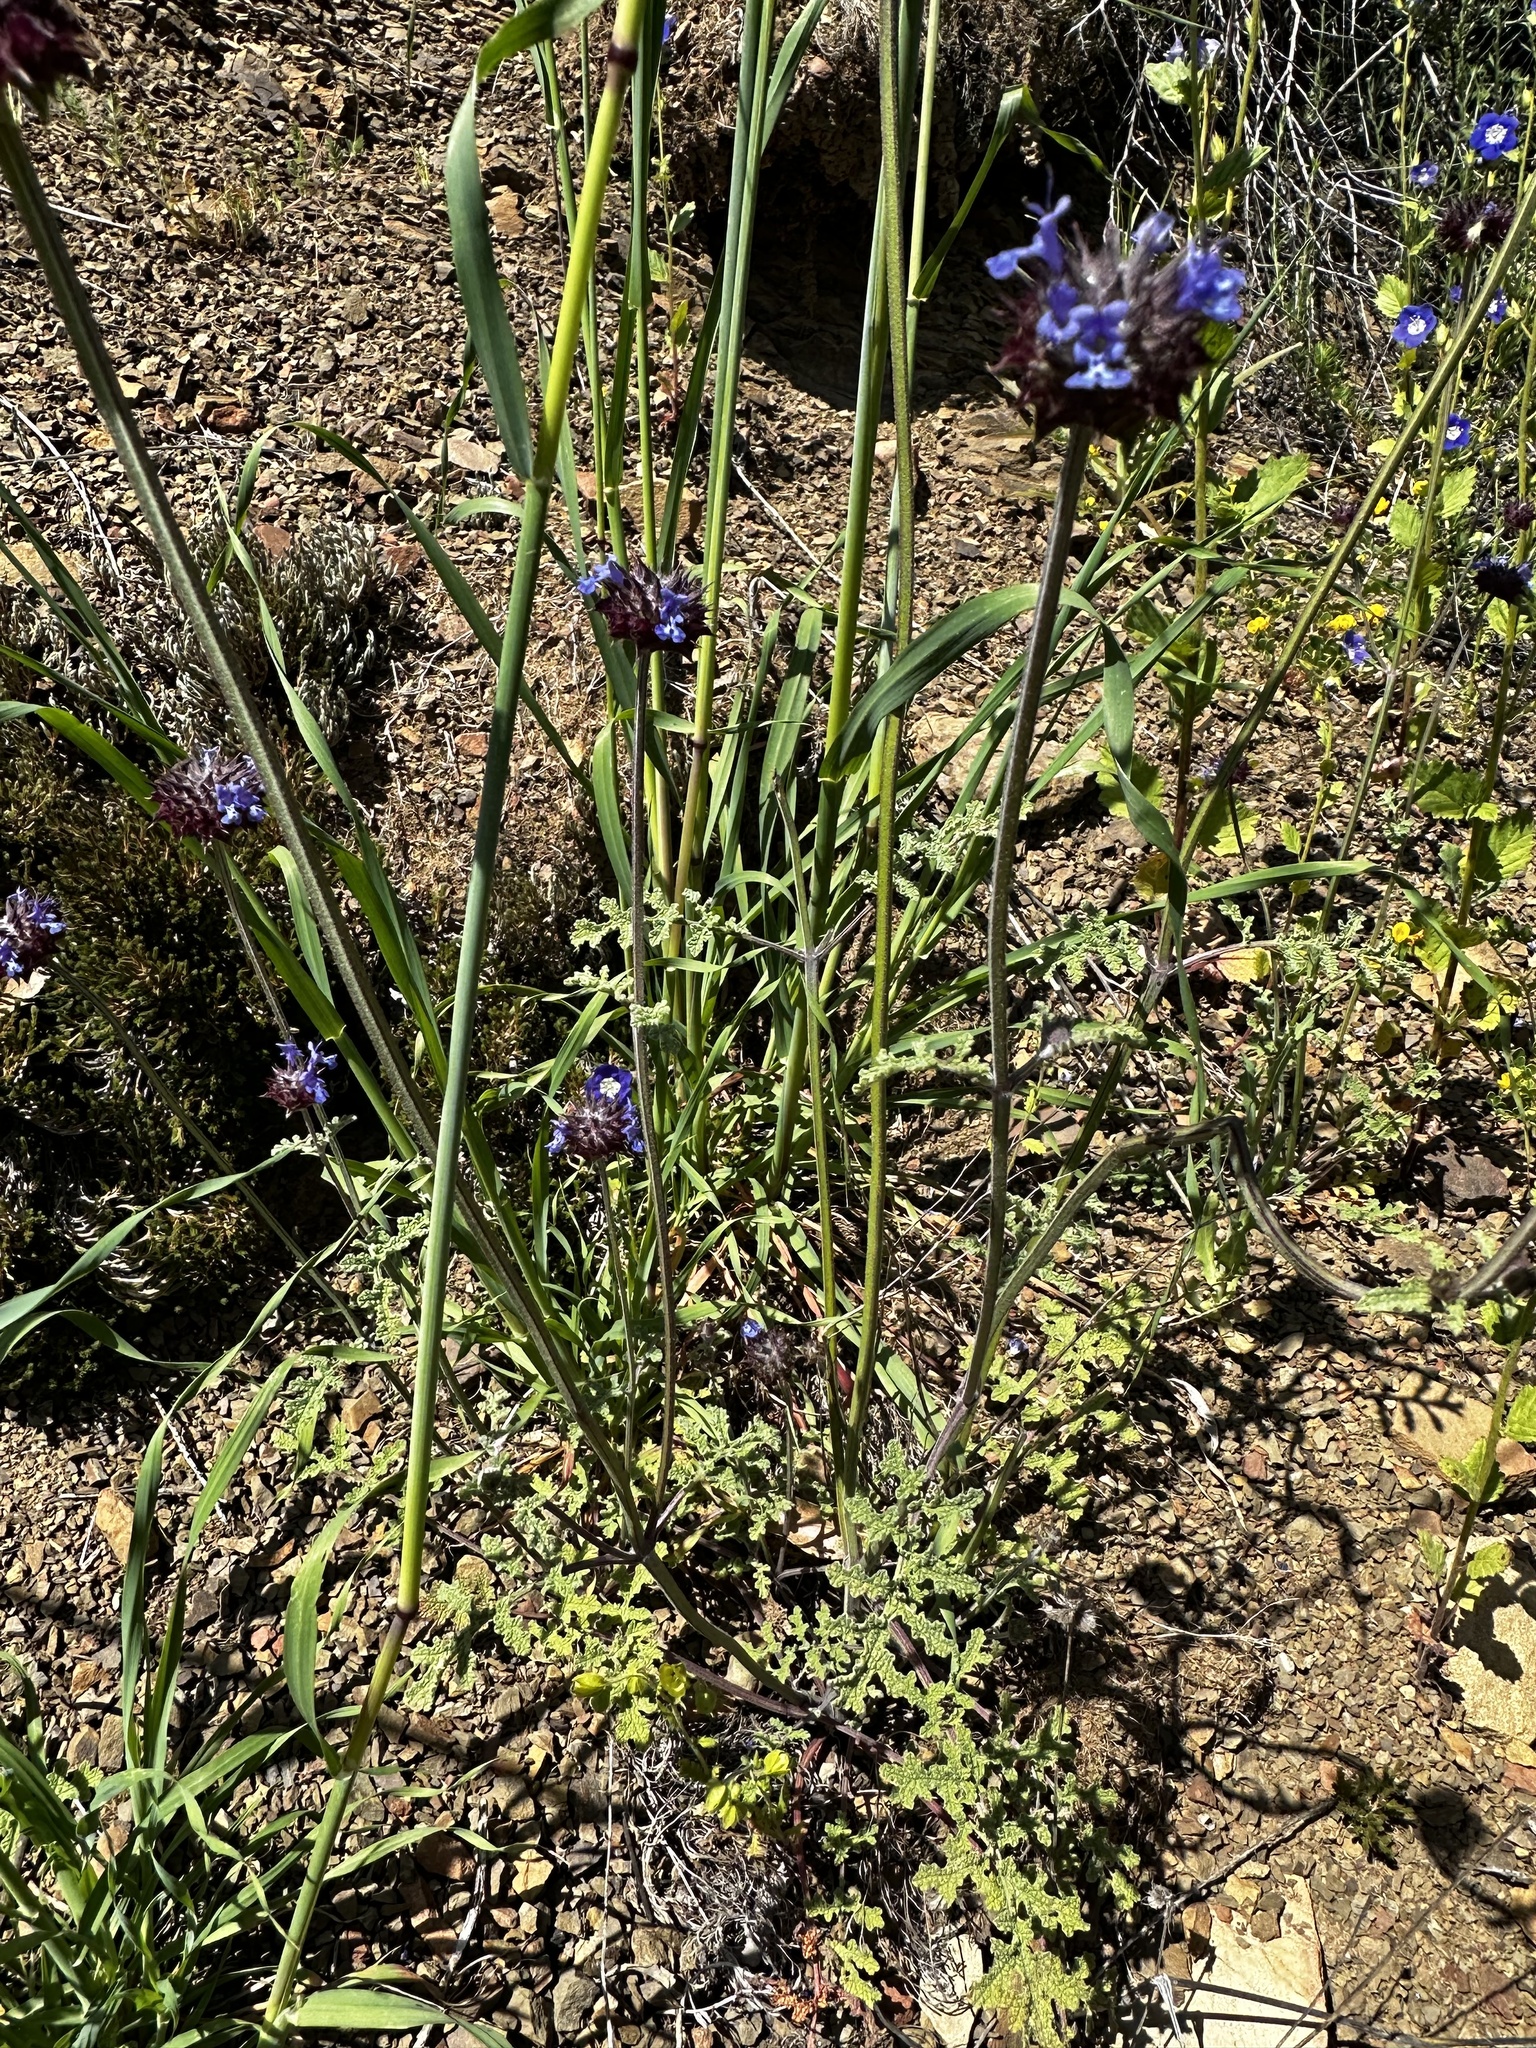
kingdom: Plantae
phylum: Tracheophyta
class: Magnoliopsida
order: Lamiales
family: Lamiaceae
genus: Salvia
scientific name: Salvia columbariae
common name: Chia
